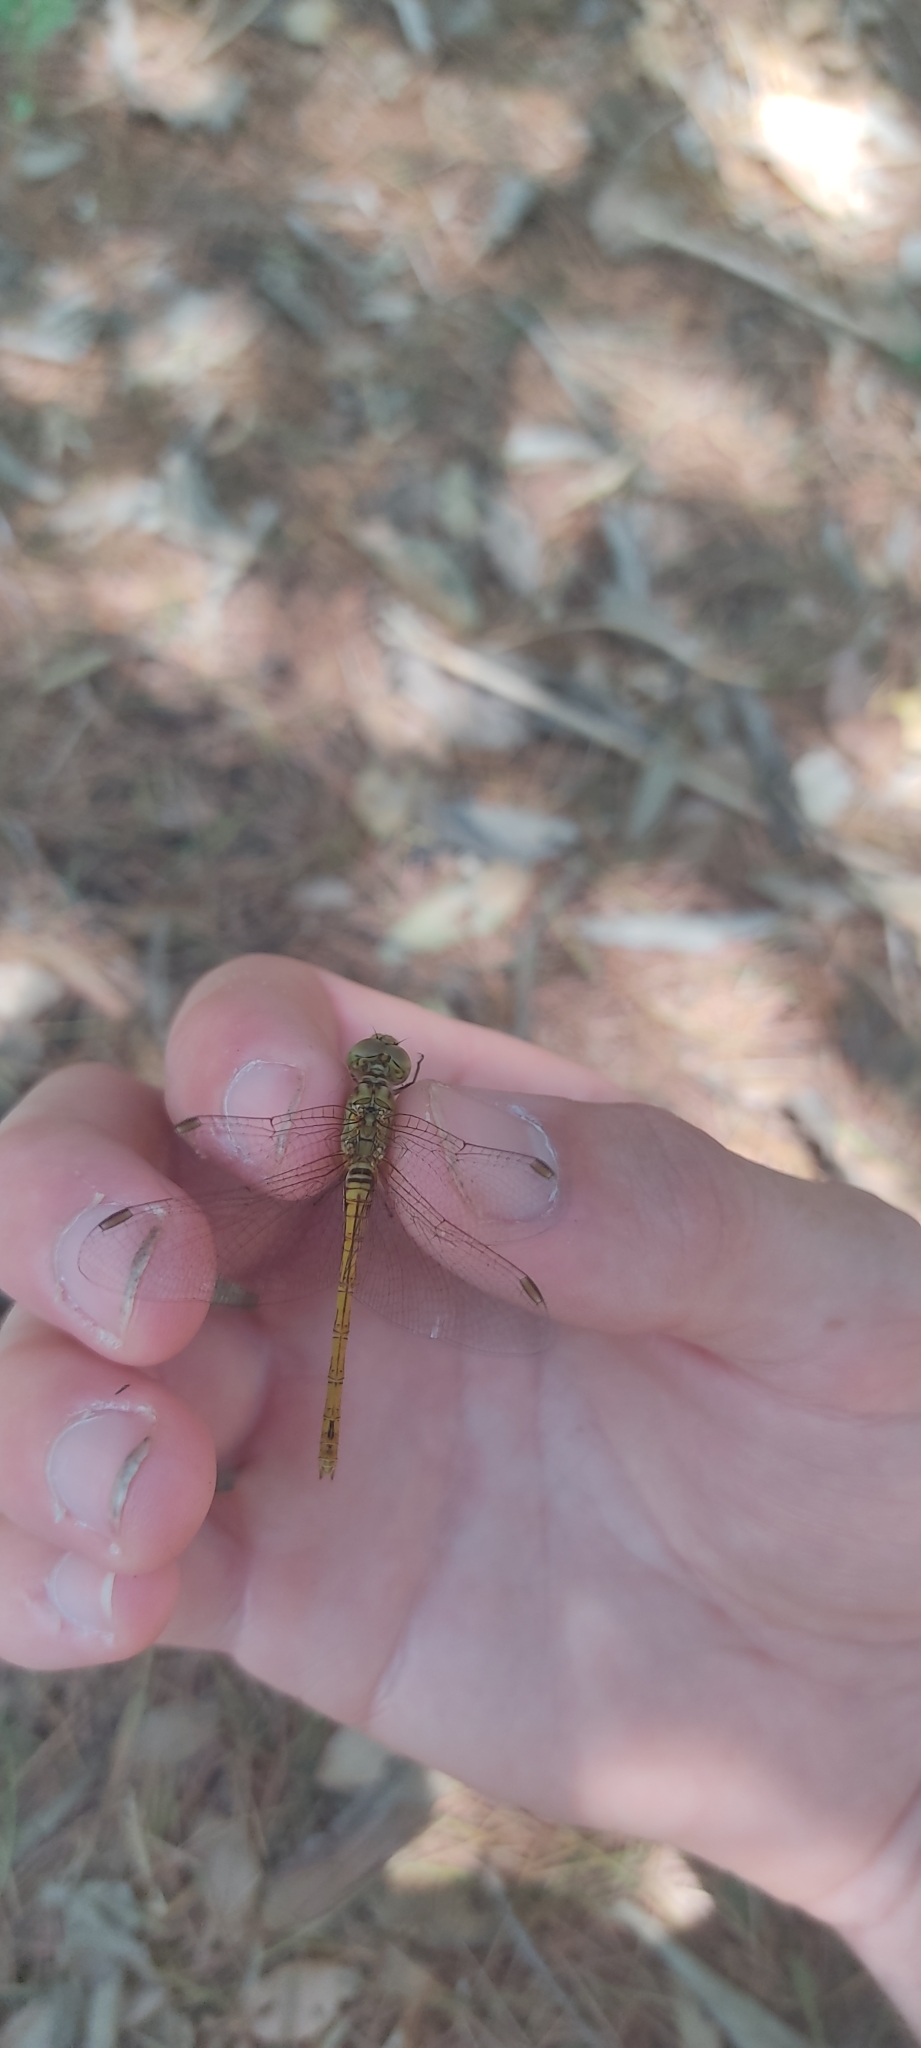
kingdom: Animalia
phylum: Arthropoda
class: Insecta
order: Odonata
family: Libellulidae
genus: Sympetrum
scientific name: Sympetrum meridionale
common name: Southern darter
